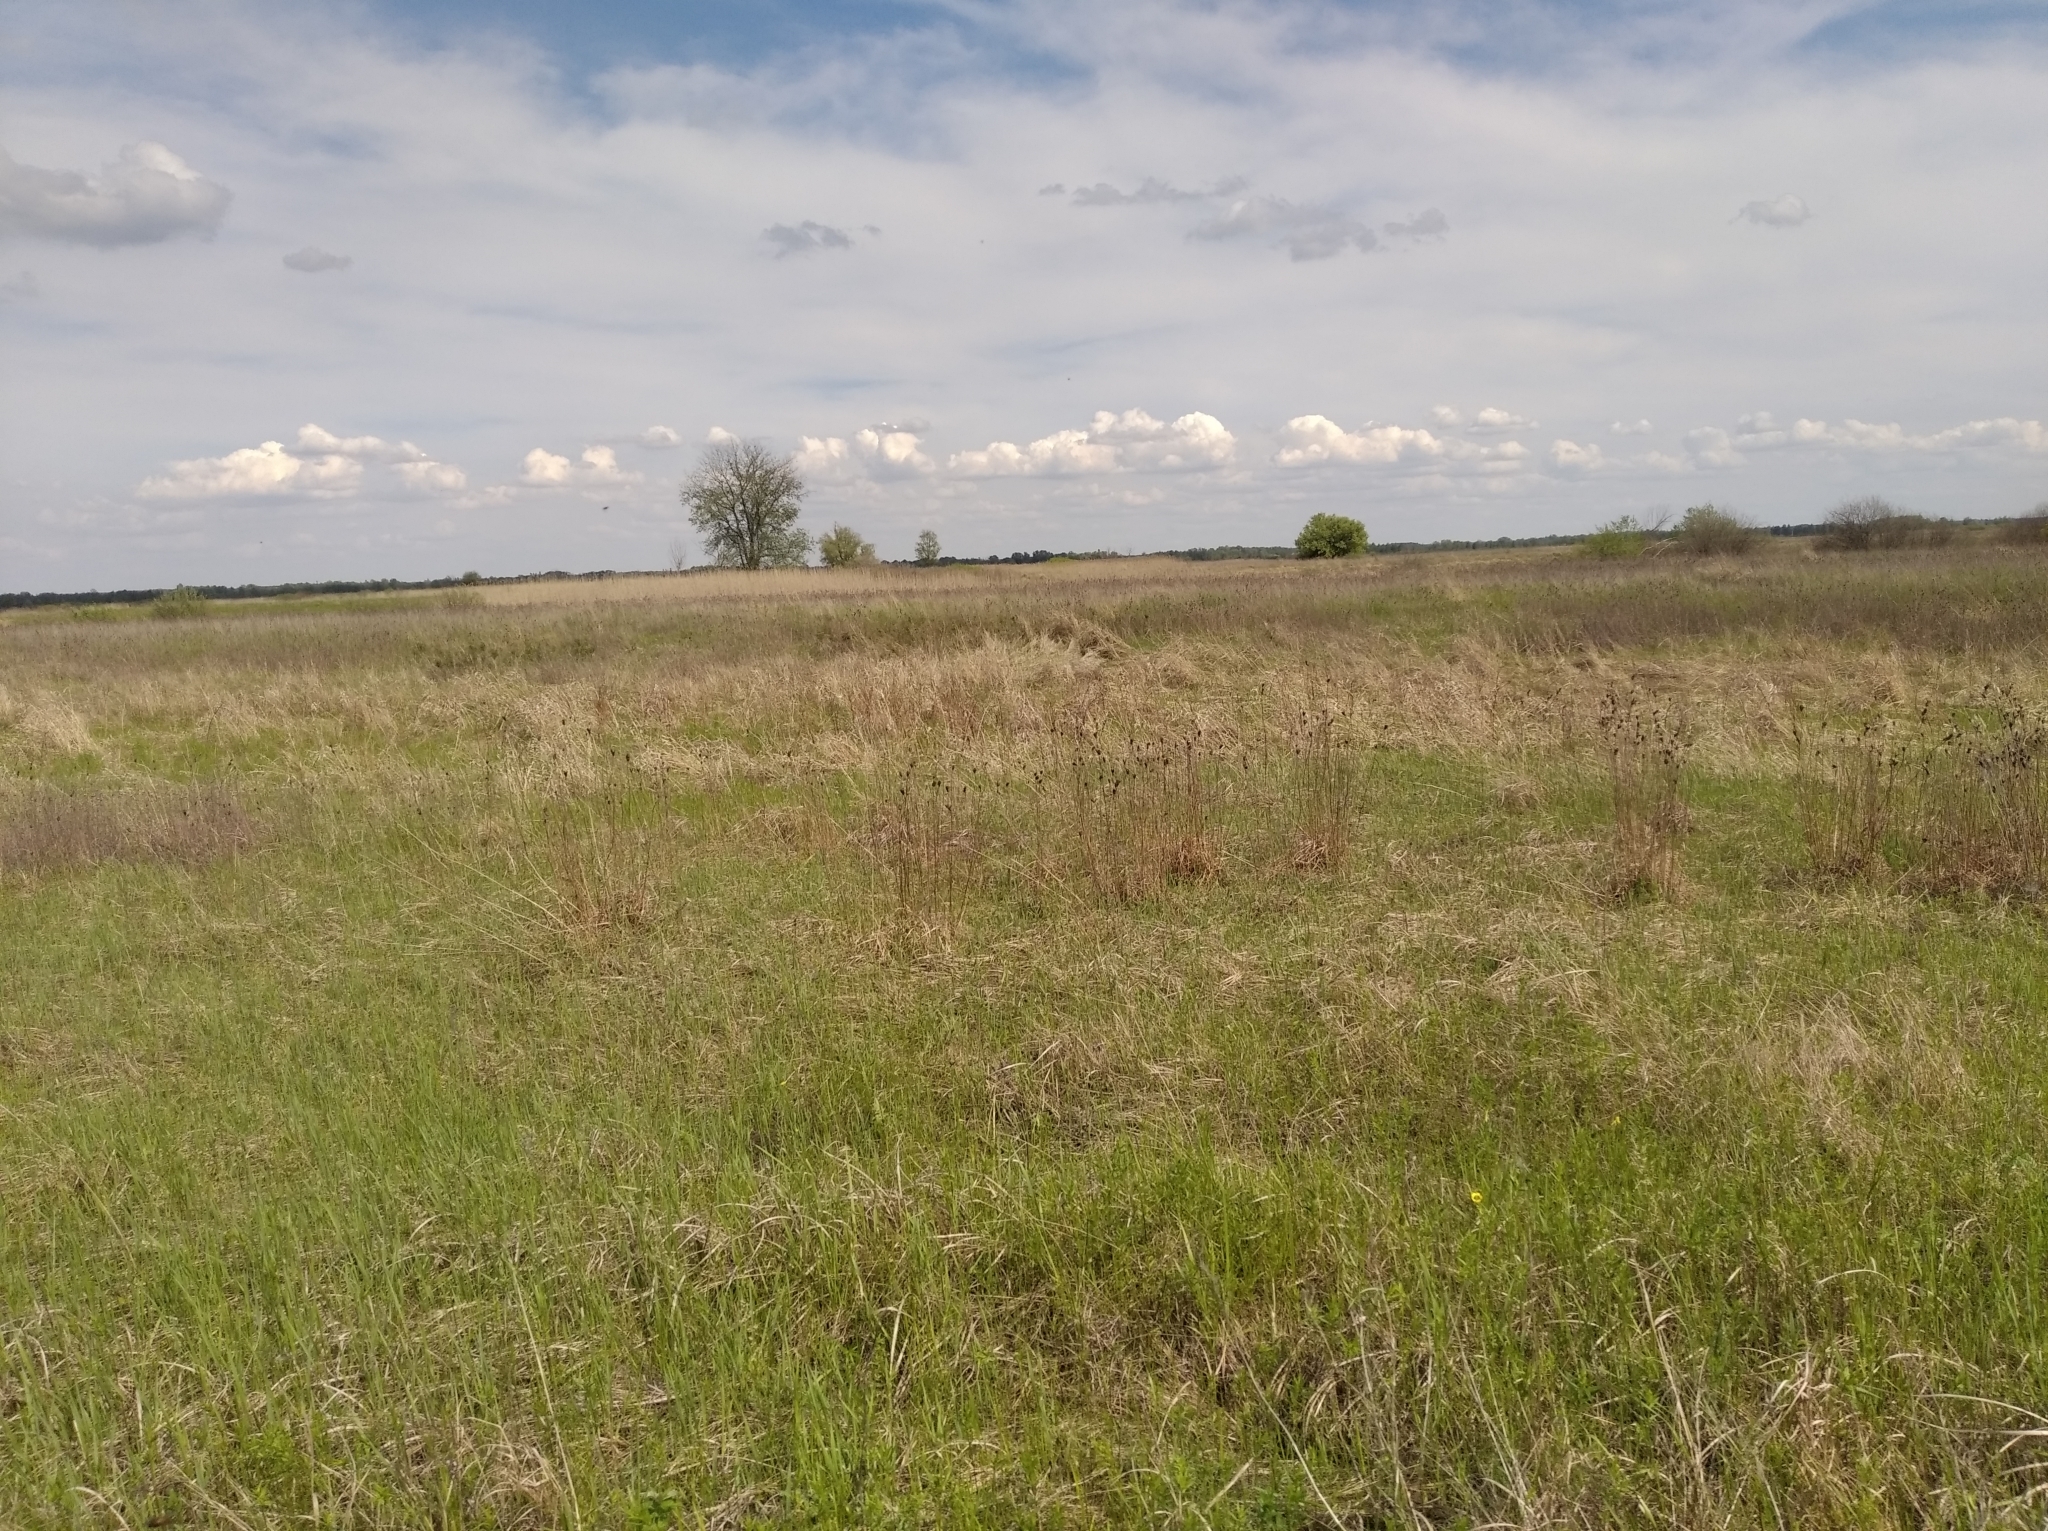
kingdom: Plantae
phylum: Tracheophyta
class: Liliopsida
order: Asparagales
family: Iridaceae
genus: Iris
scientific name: Iris sibirica
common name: Siberian iris
